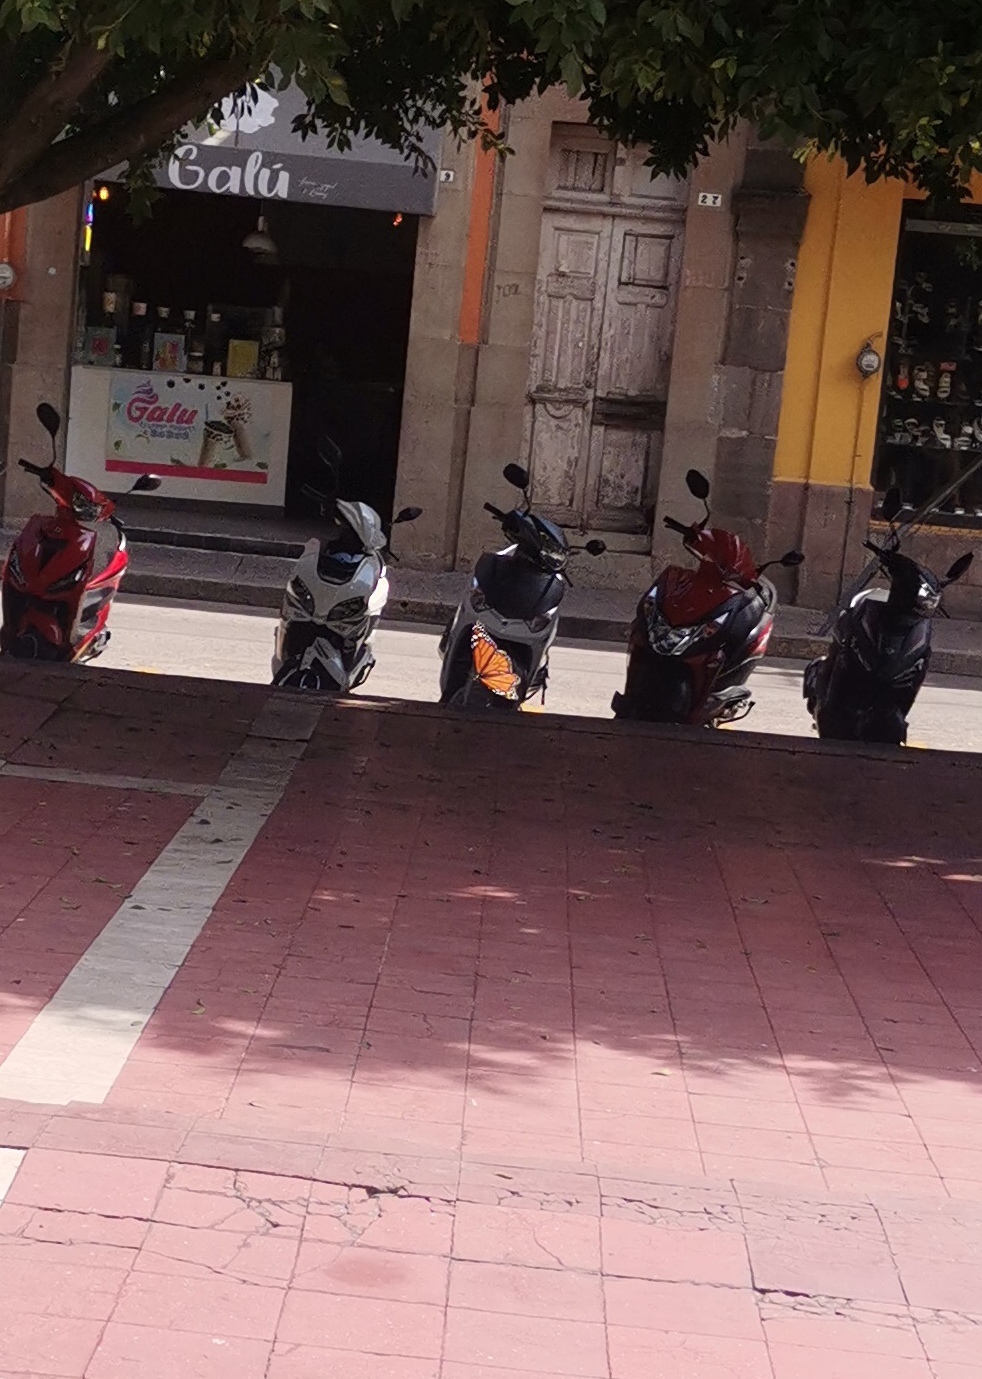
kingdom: Animalia
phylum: Arthropoda
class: Insecta
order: Lepidoptera
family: Nymphalidae
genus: Danaus
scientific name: Danaus plexippus
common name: Monarch
